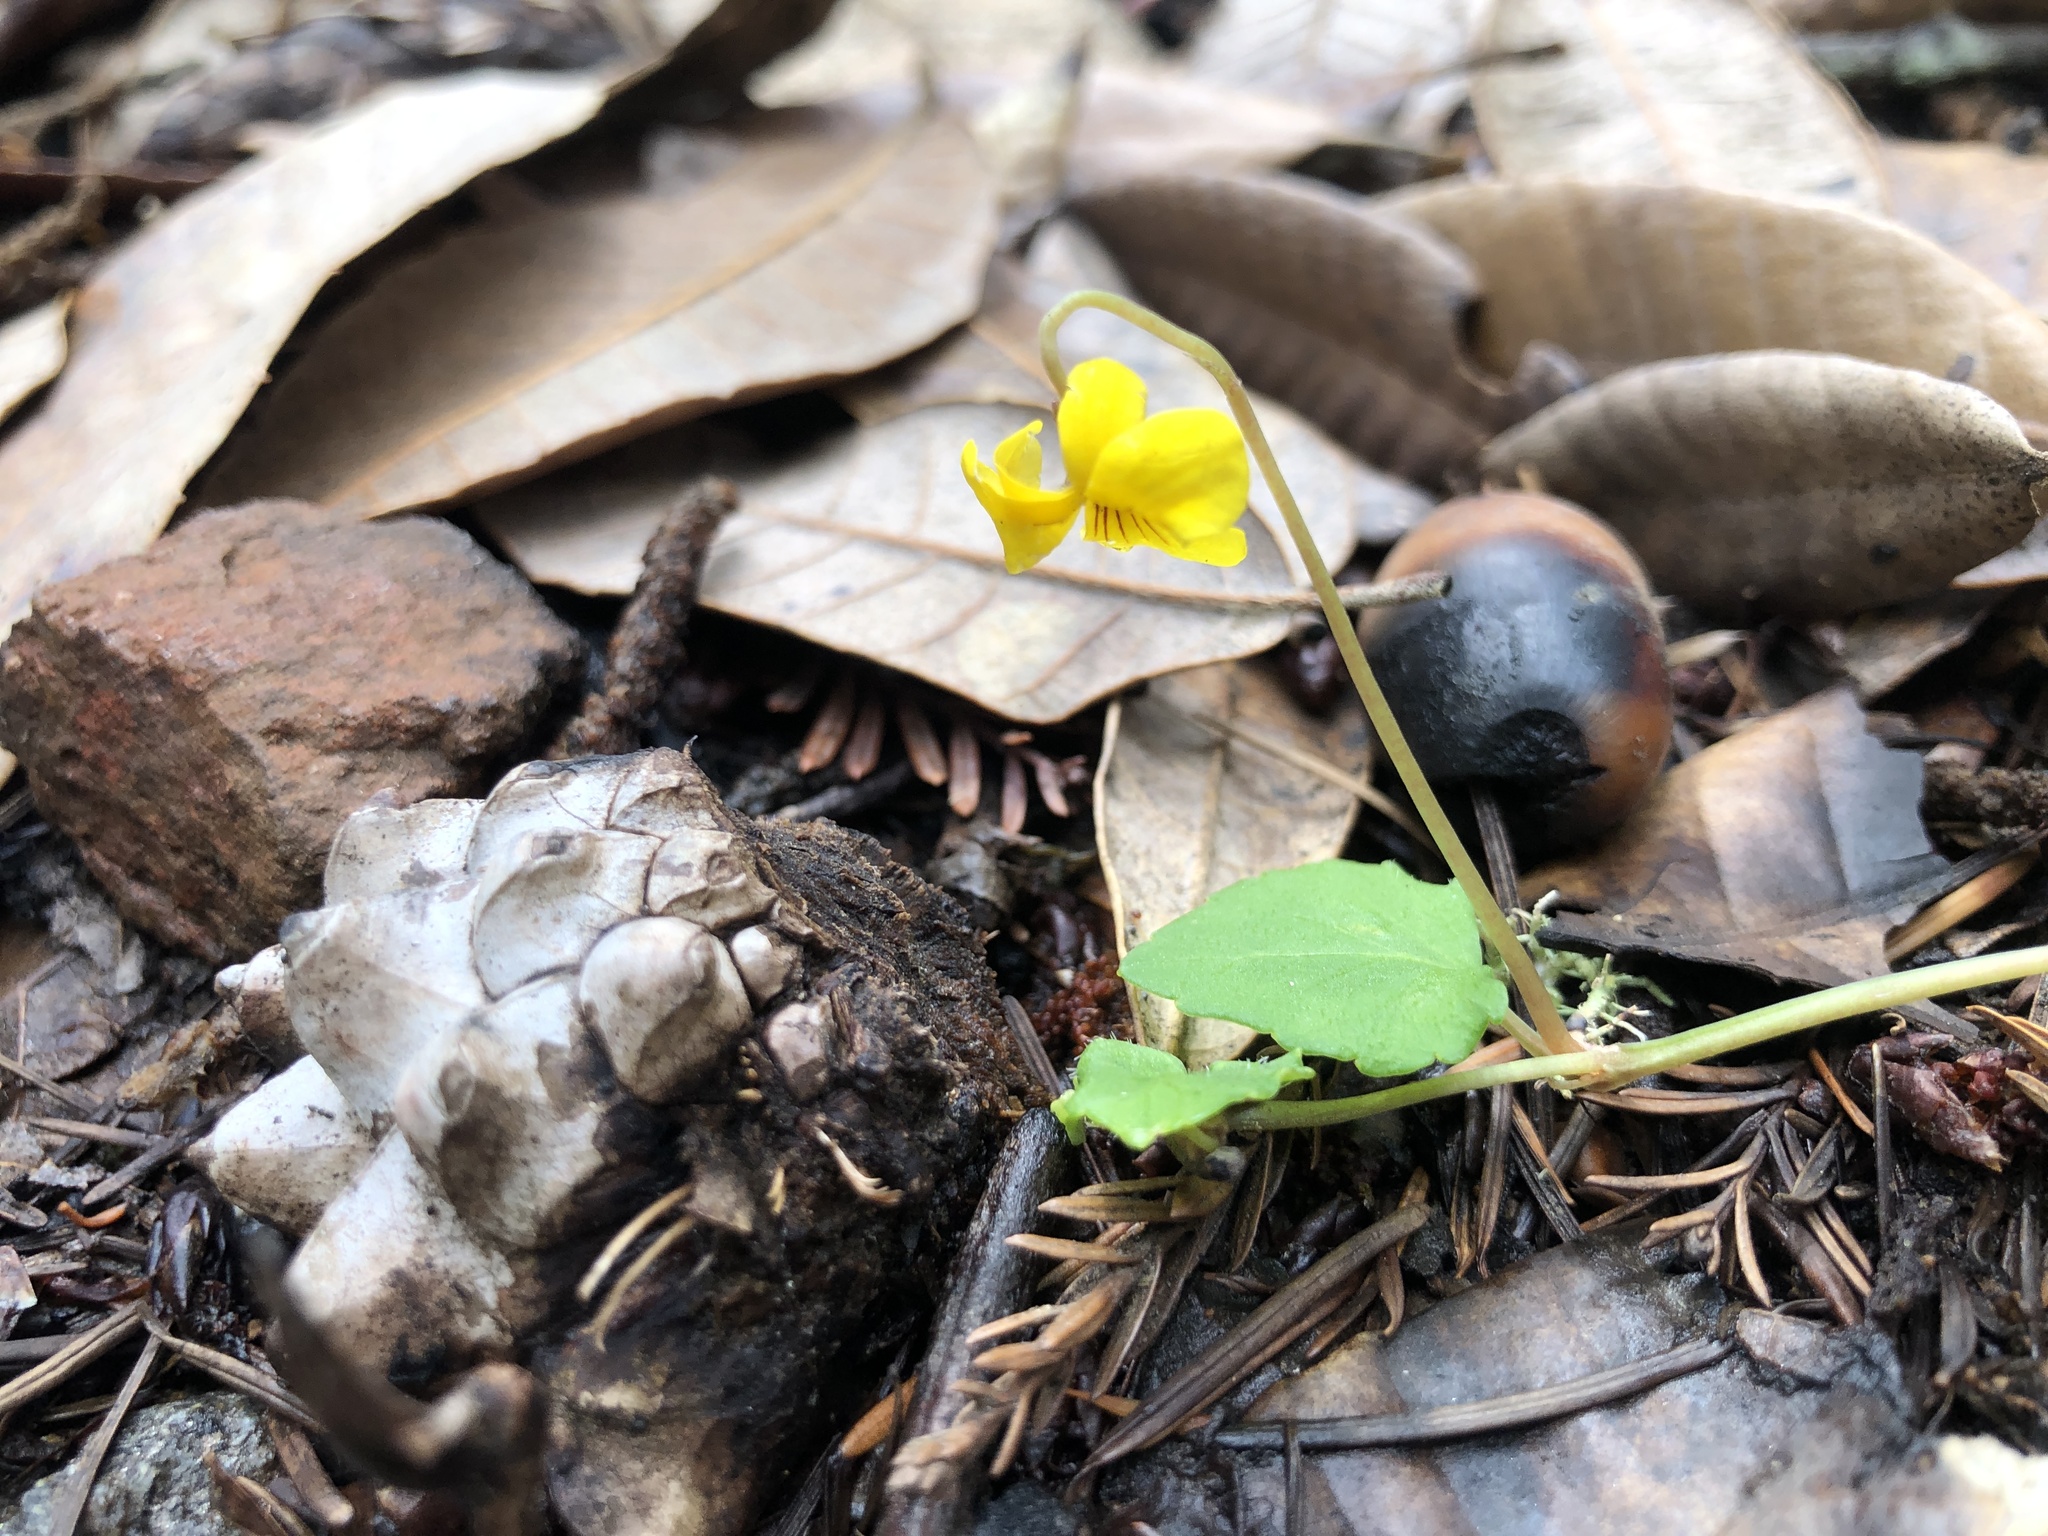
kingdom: Plantae
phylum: Tracheophyta
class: Magnoliopsida
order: Malpighiales
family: Violaceae
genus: Viola
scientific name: Viola sempervirens
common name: Evergreen violet
